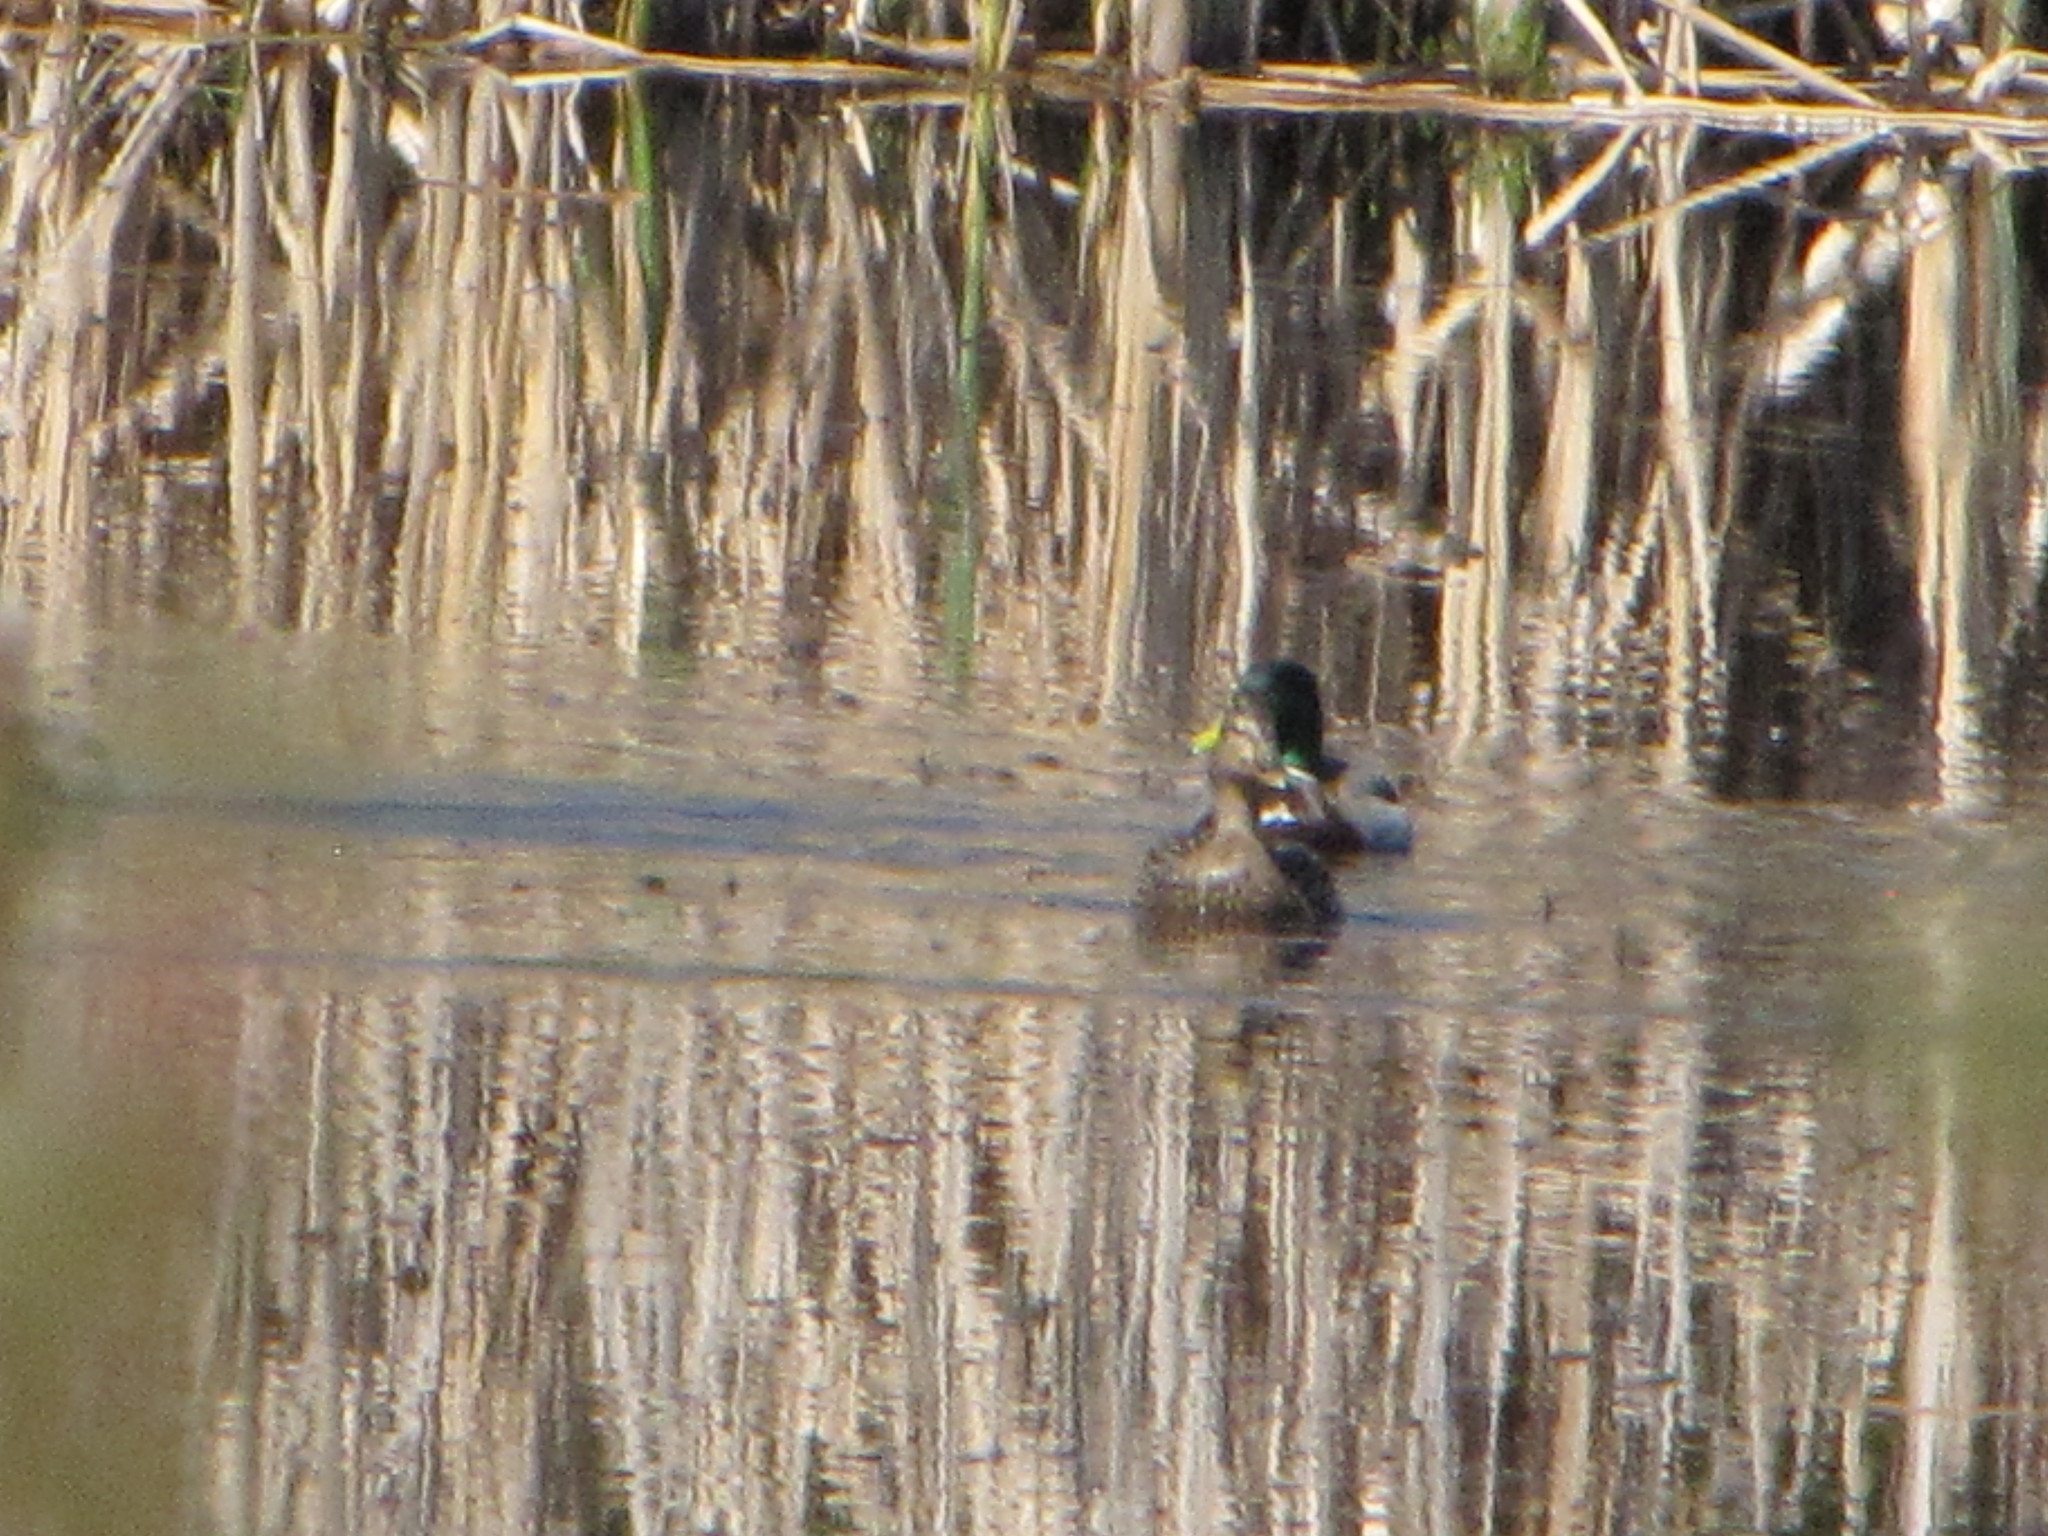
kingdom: Animalia
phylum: Chordata
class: Aves
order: Anseriformes
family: Anatidae
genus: Anas
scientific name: Anas platyrhynchos
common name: Mallard
